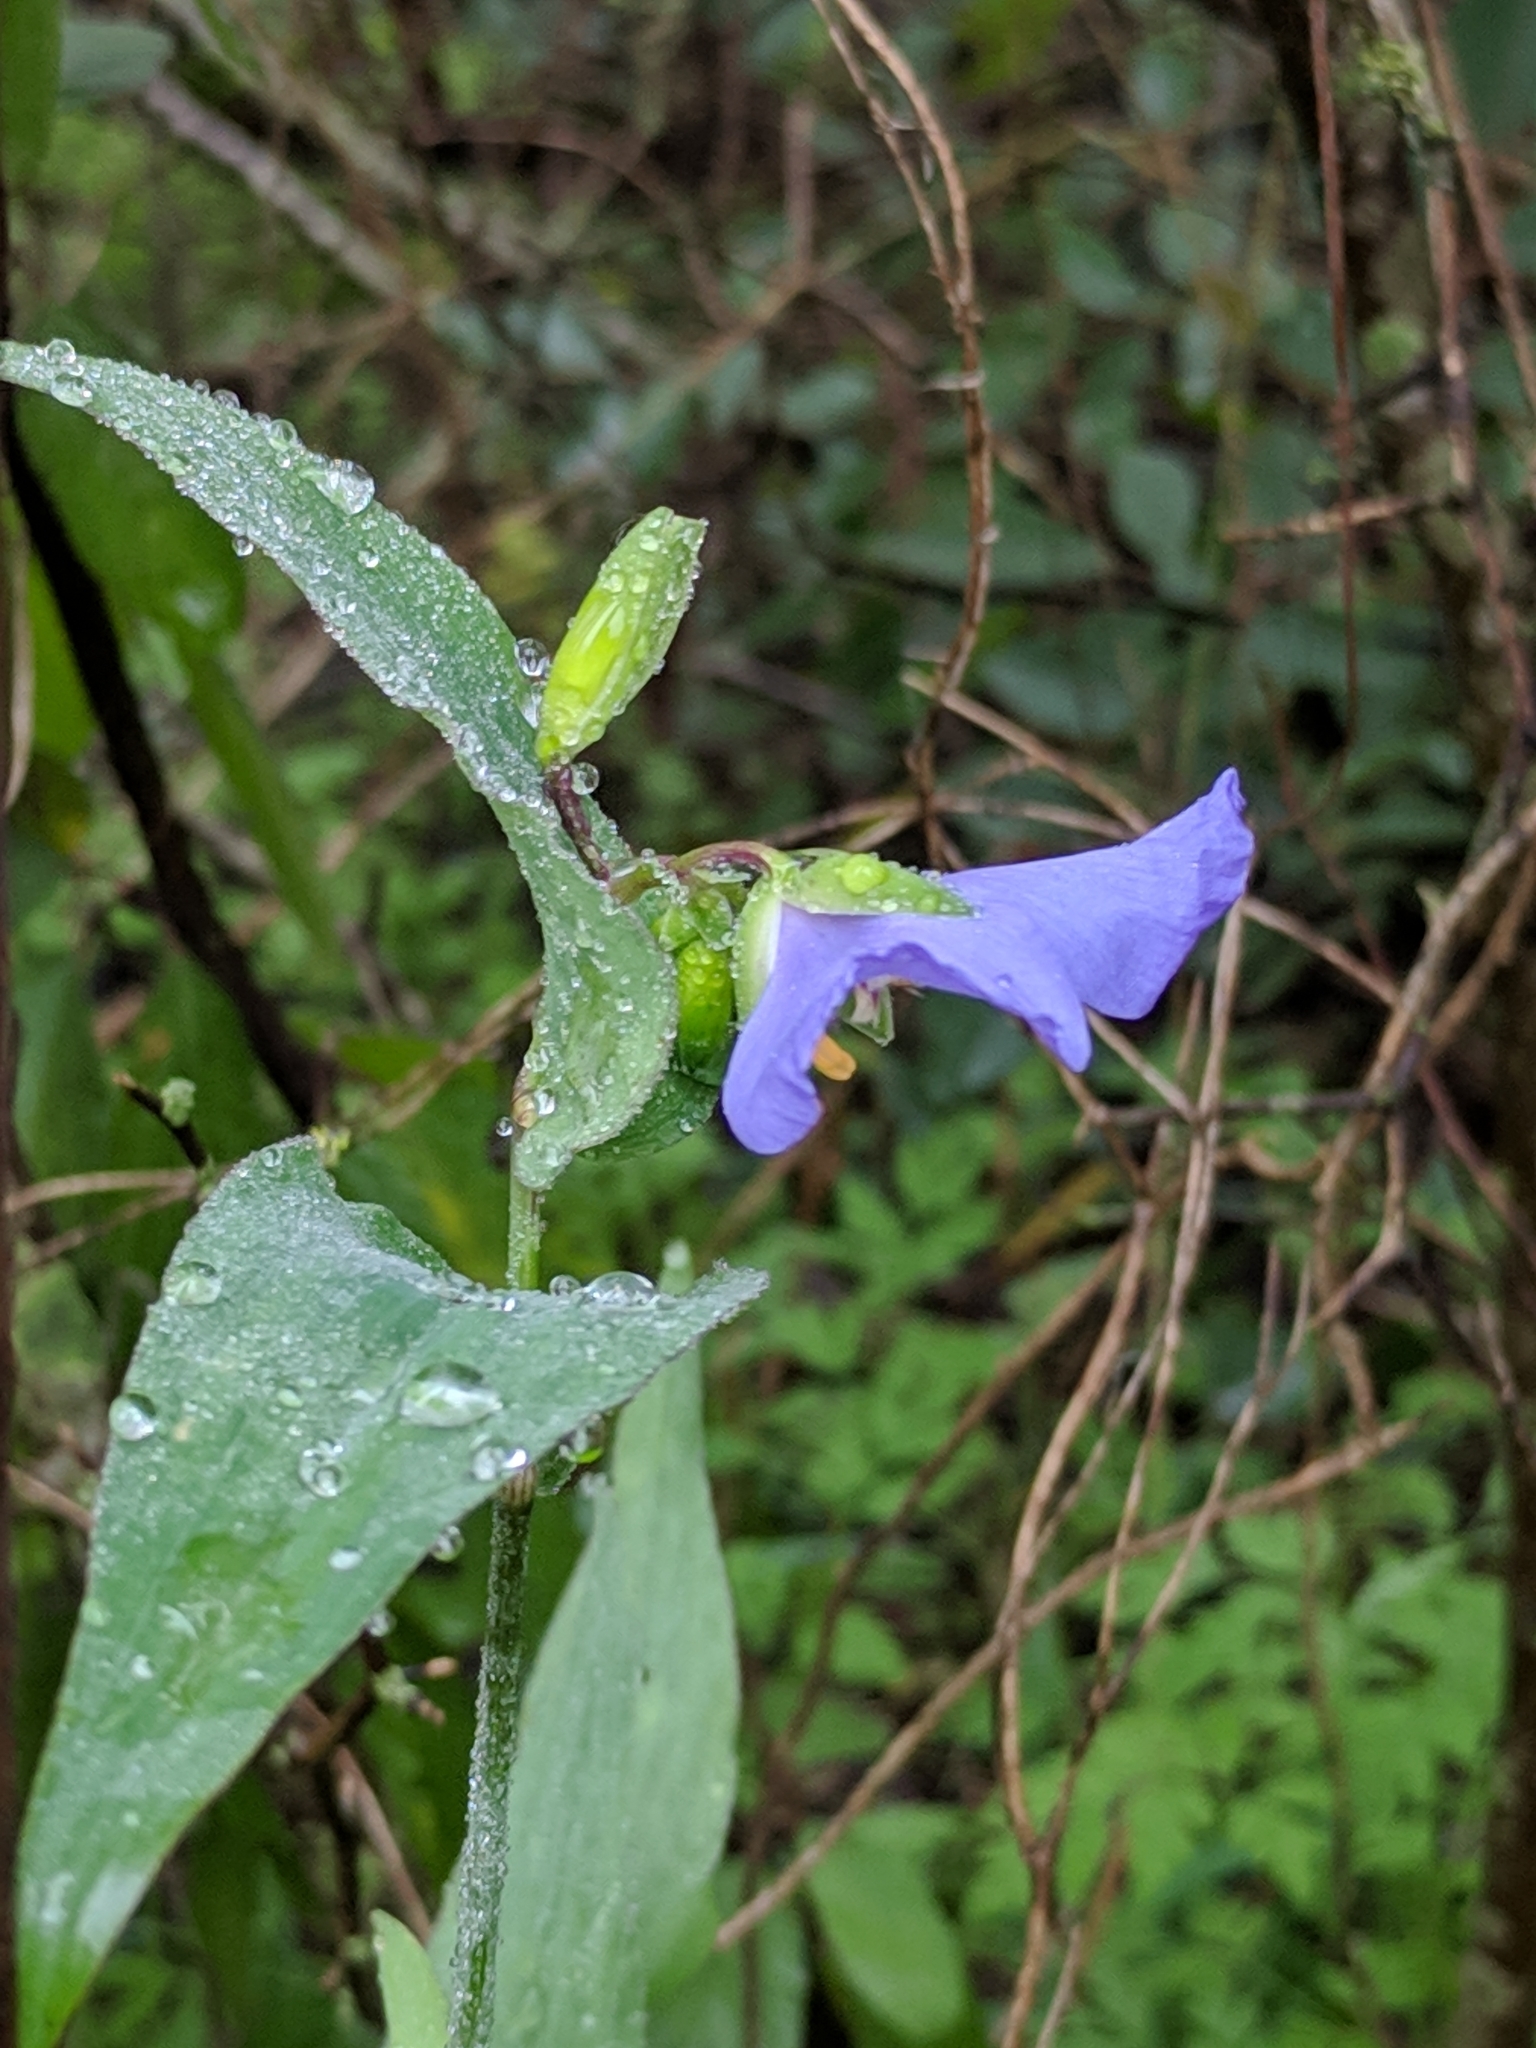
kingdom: Plantae
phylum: Tracheophyta
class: Liliopsida
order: Commelinales
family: Commelinaceae
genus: Tinantia
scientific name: Tinantia anomala
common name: False dayflower
